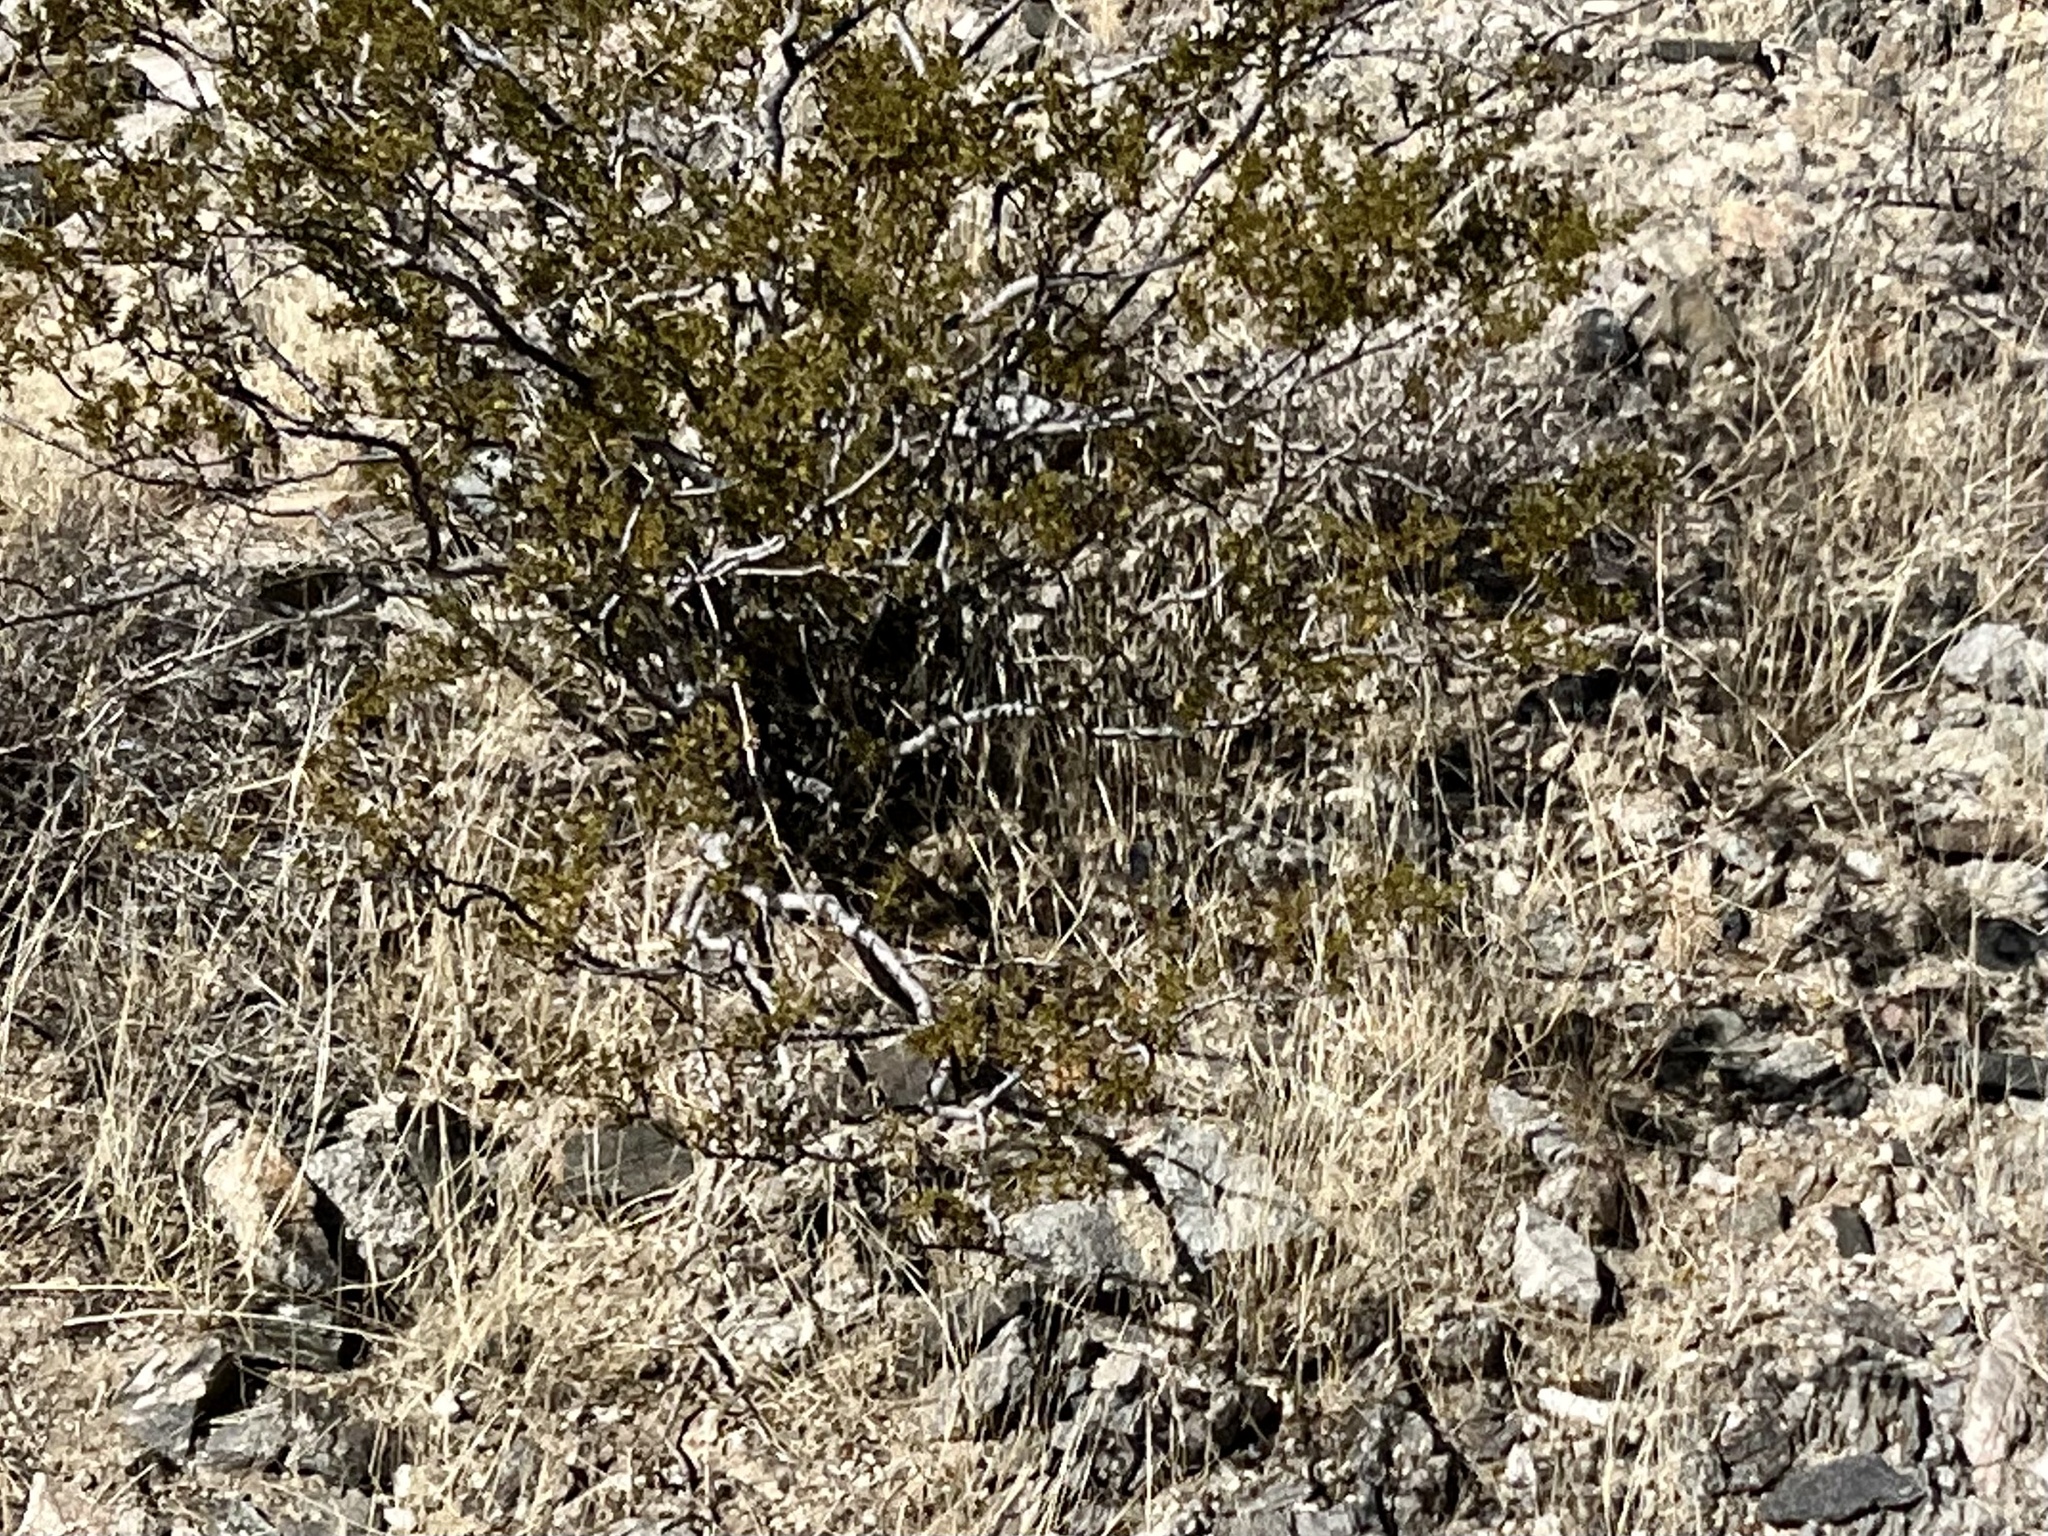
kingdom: Plantae
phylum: Tracheophyta
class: Magnoliopsida
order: Zygophyllales
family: Zygophyllaceae
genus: Larrea
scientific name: Larrea tridentata
